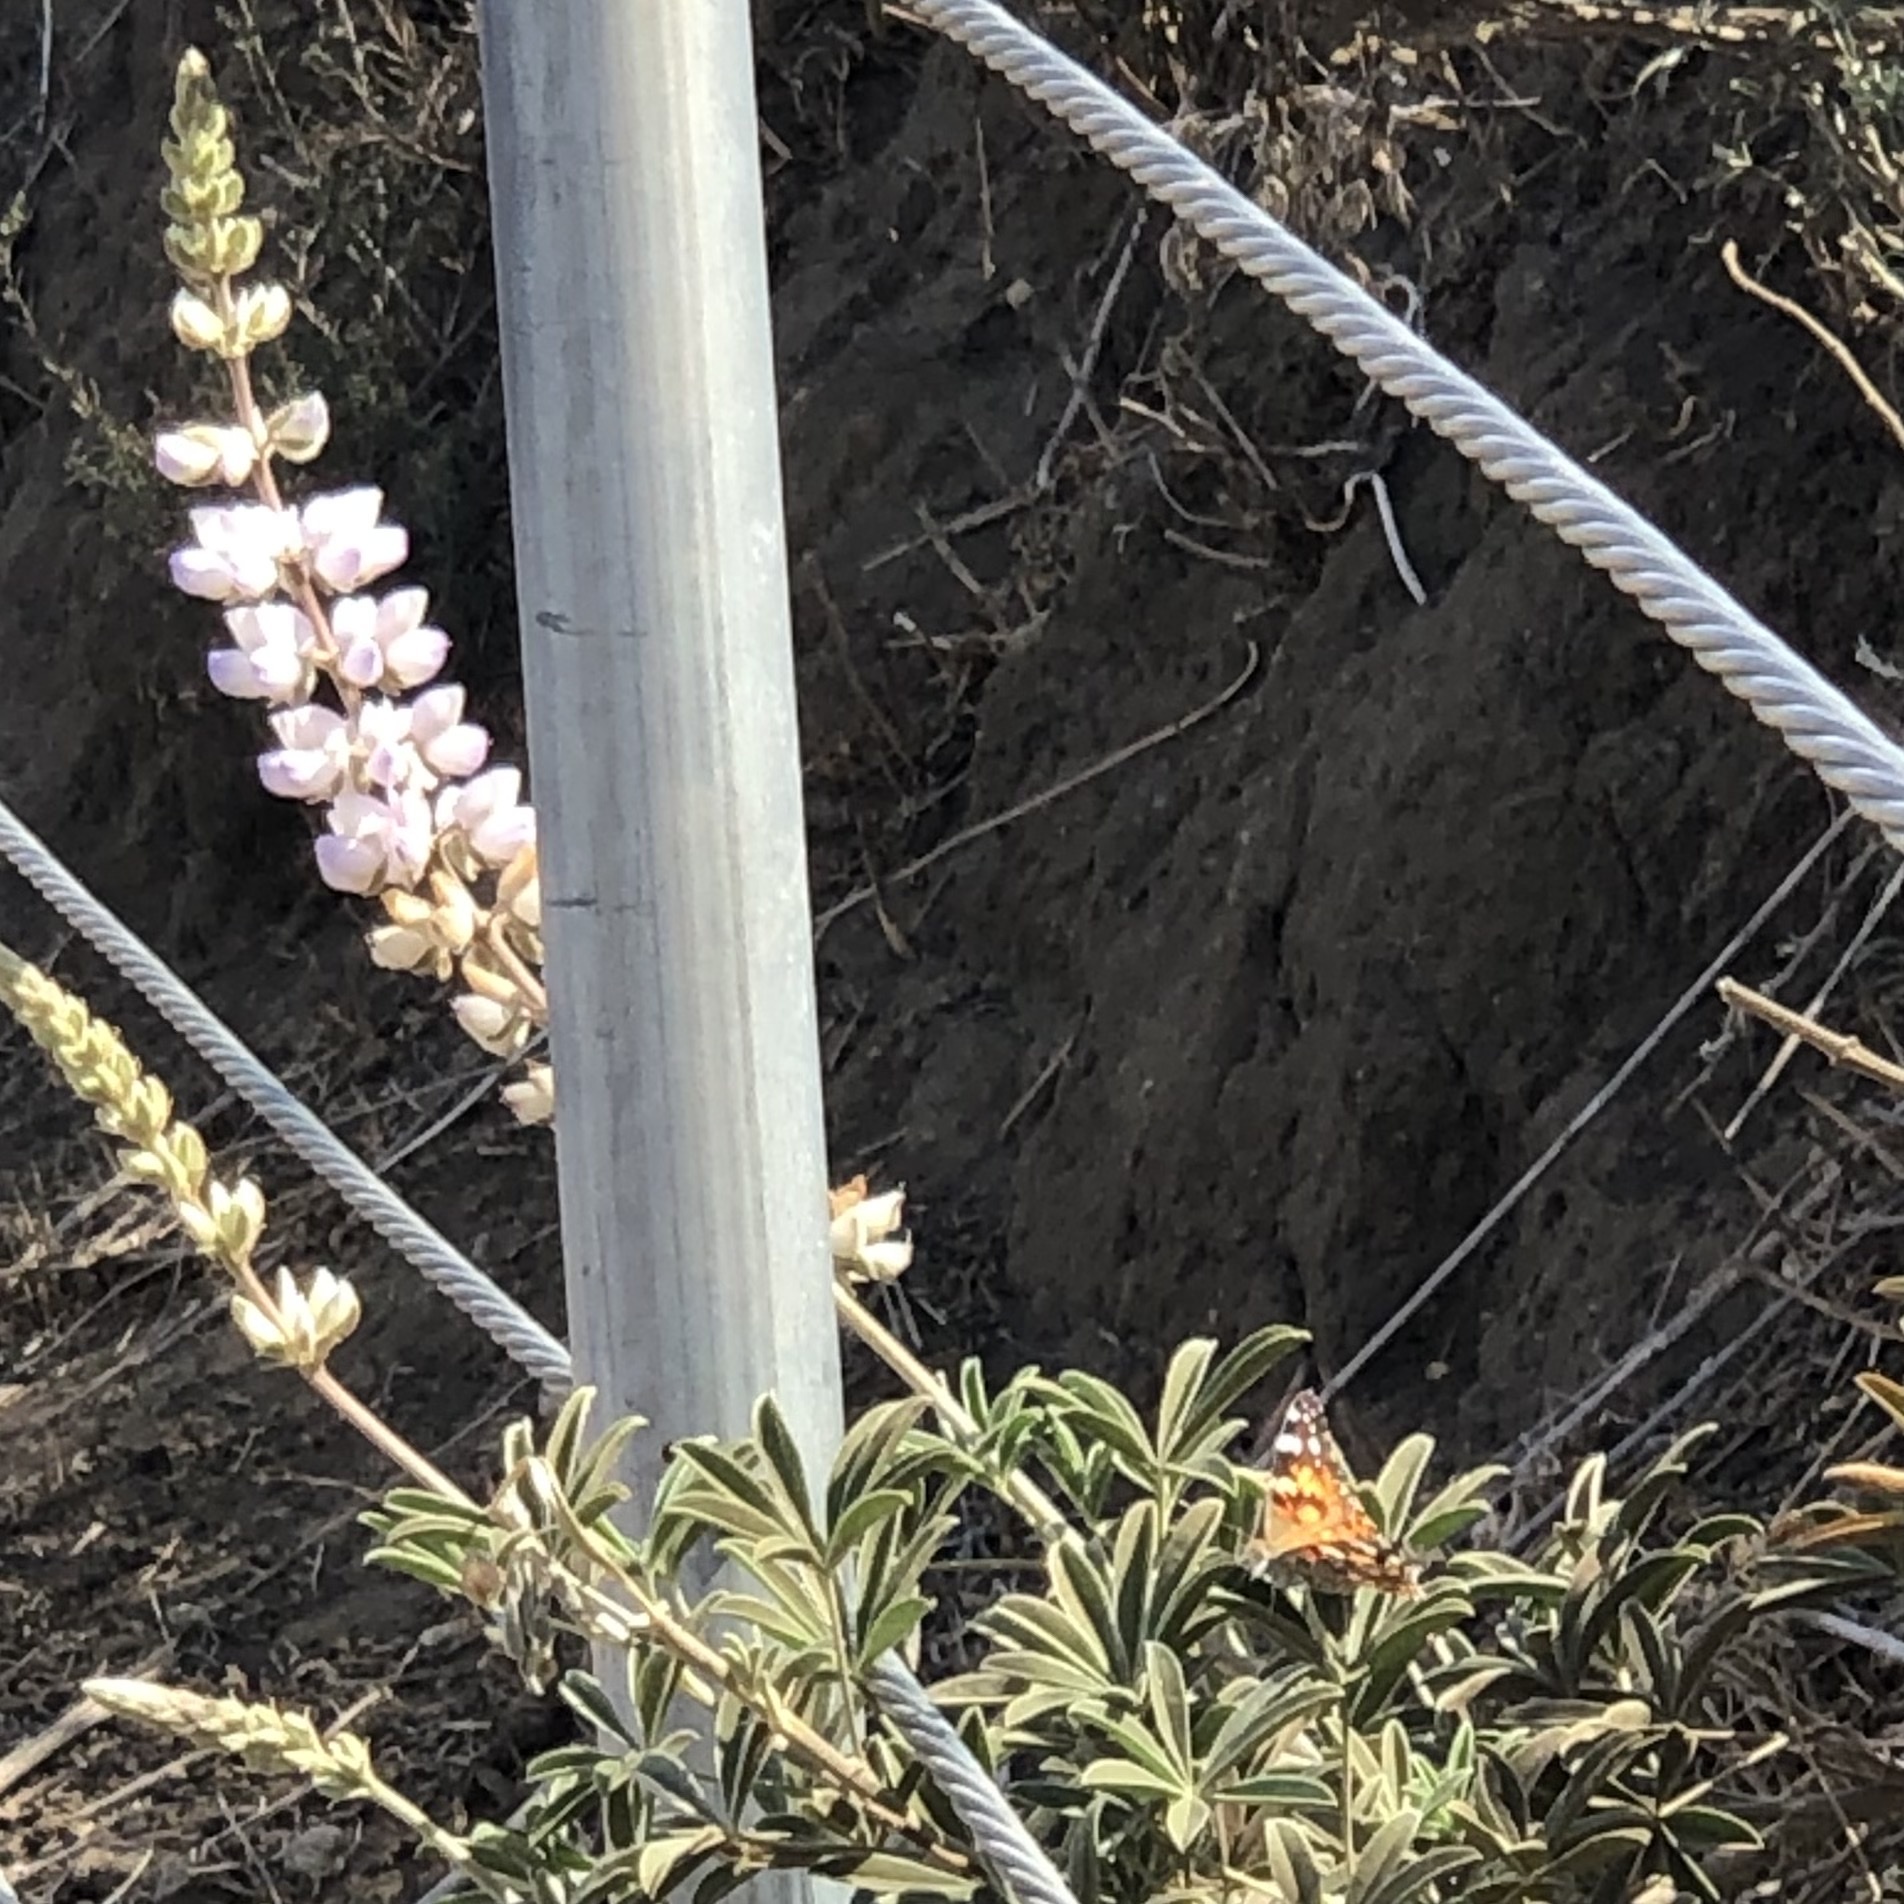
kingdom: Animalia
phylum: Arthropoda
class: Insecta
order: Lepidoptera
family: Nymphalidae
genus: Vanessa
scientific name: Vanessa cardui
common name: Painted lady
